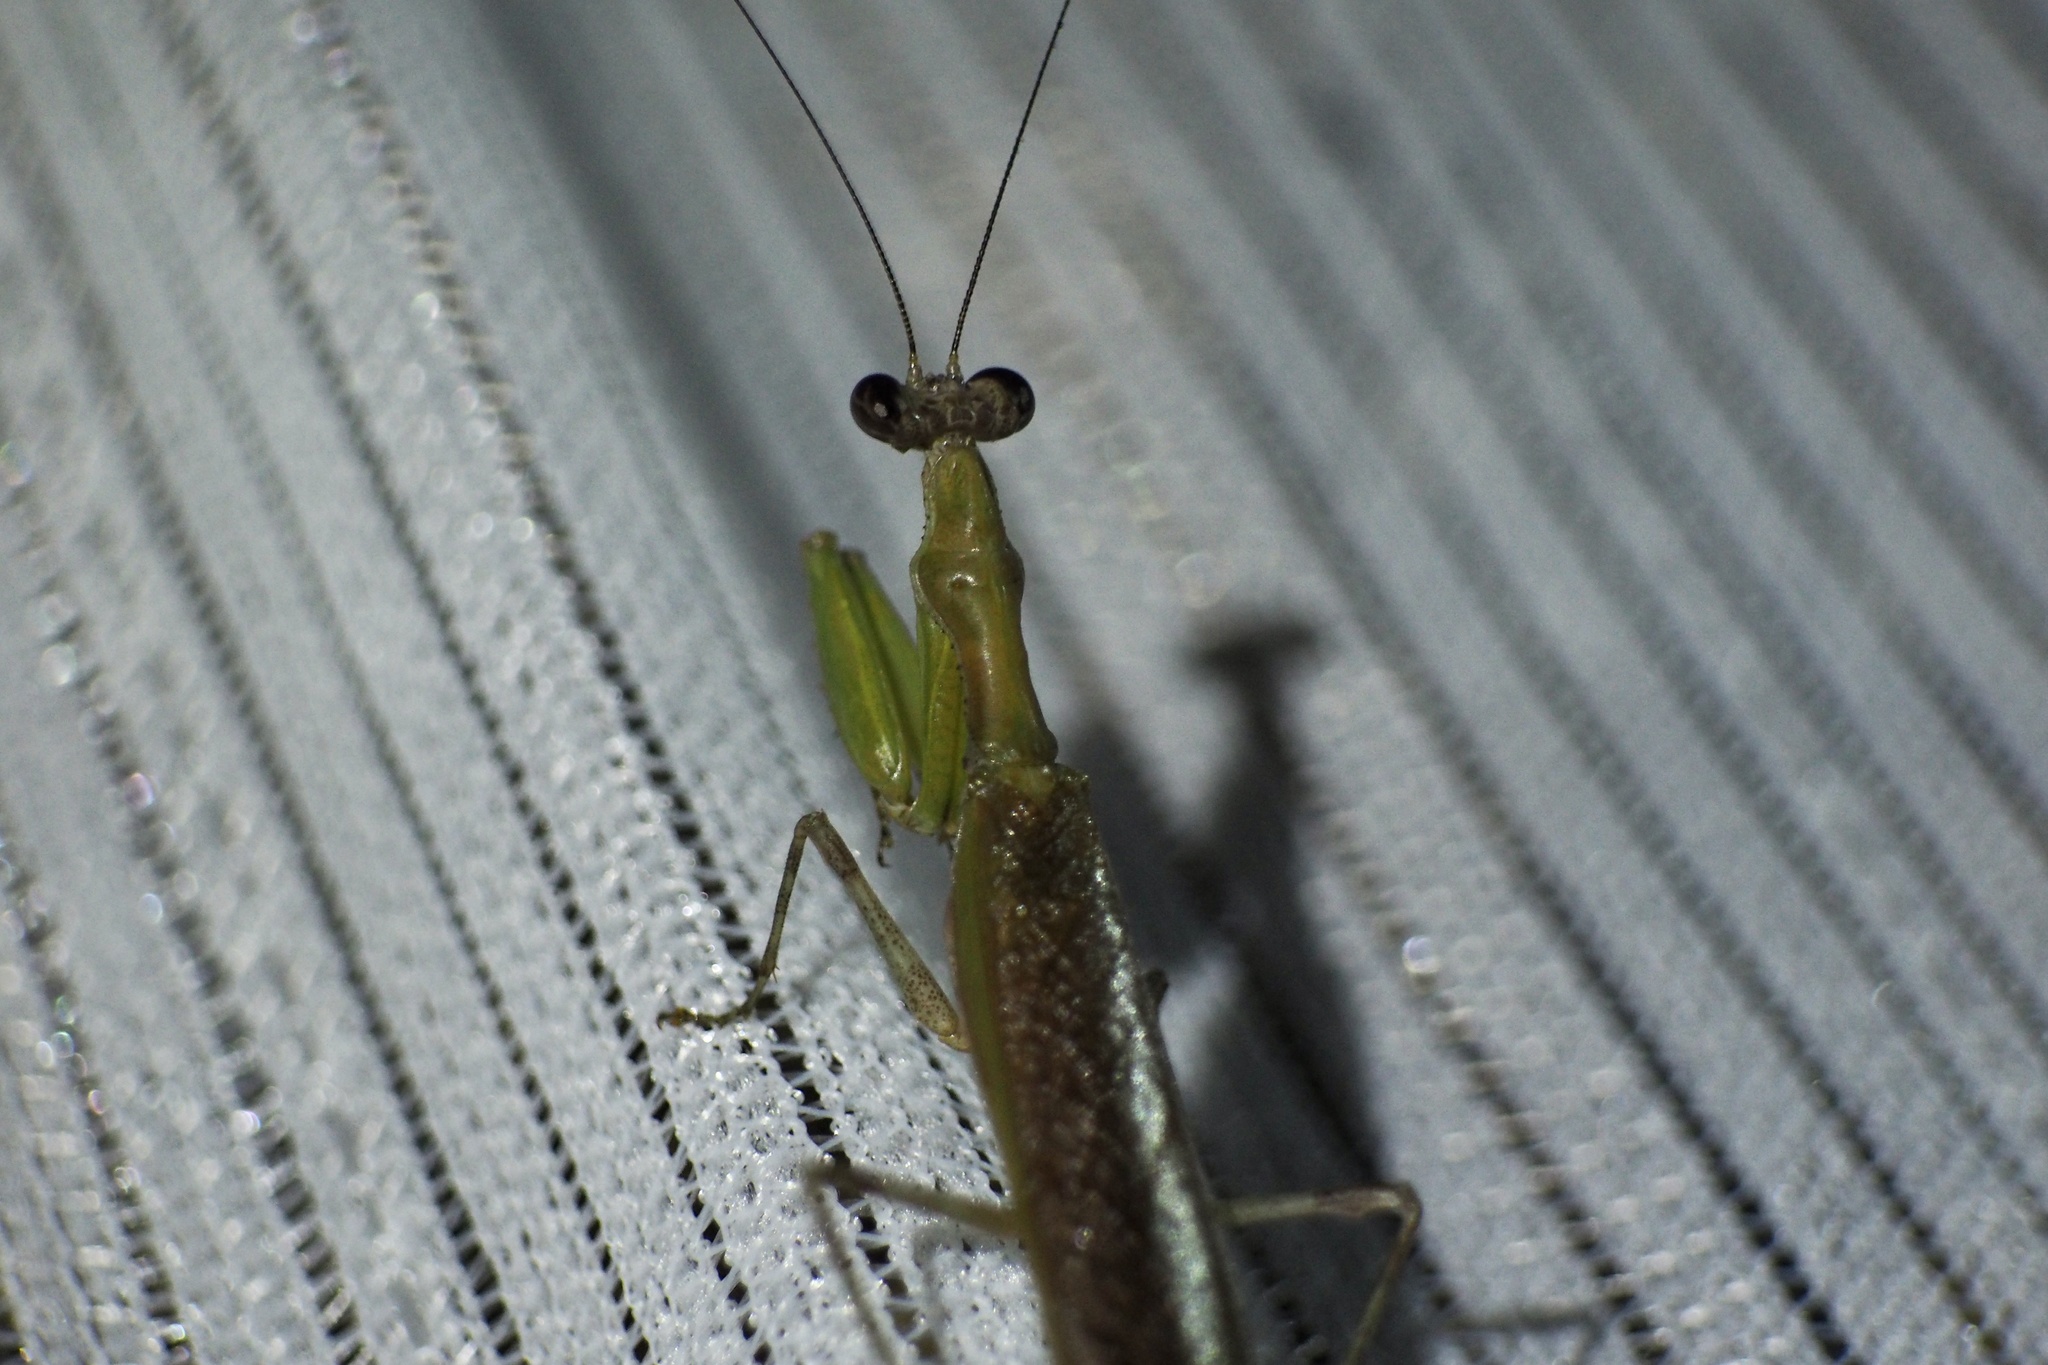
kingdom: Animalia
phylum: Arthropoda
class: Insecta
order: Mantodea
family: Hymenopodidae
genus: Acromantis
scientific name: Acromantis japonica
